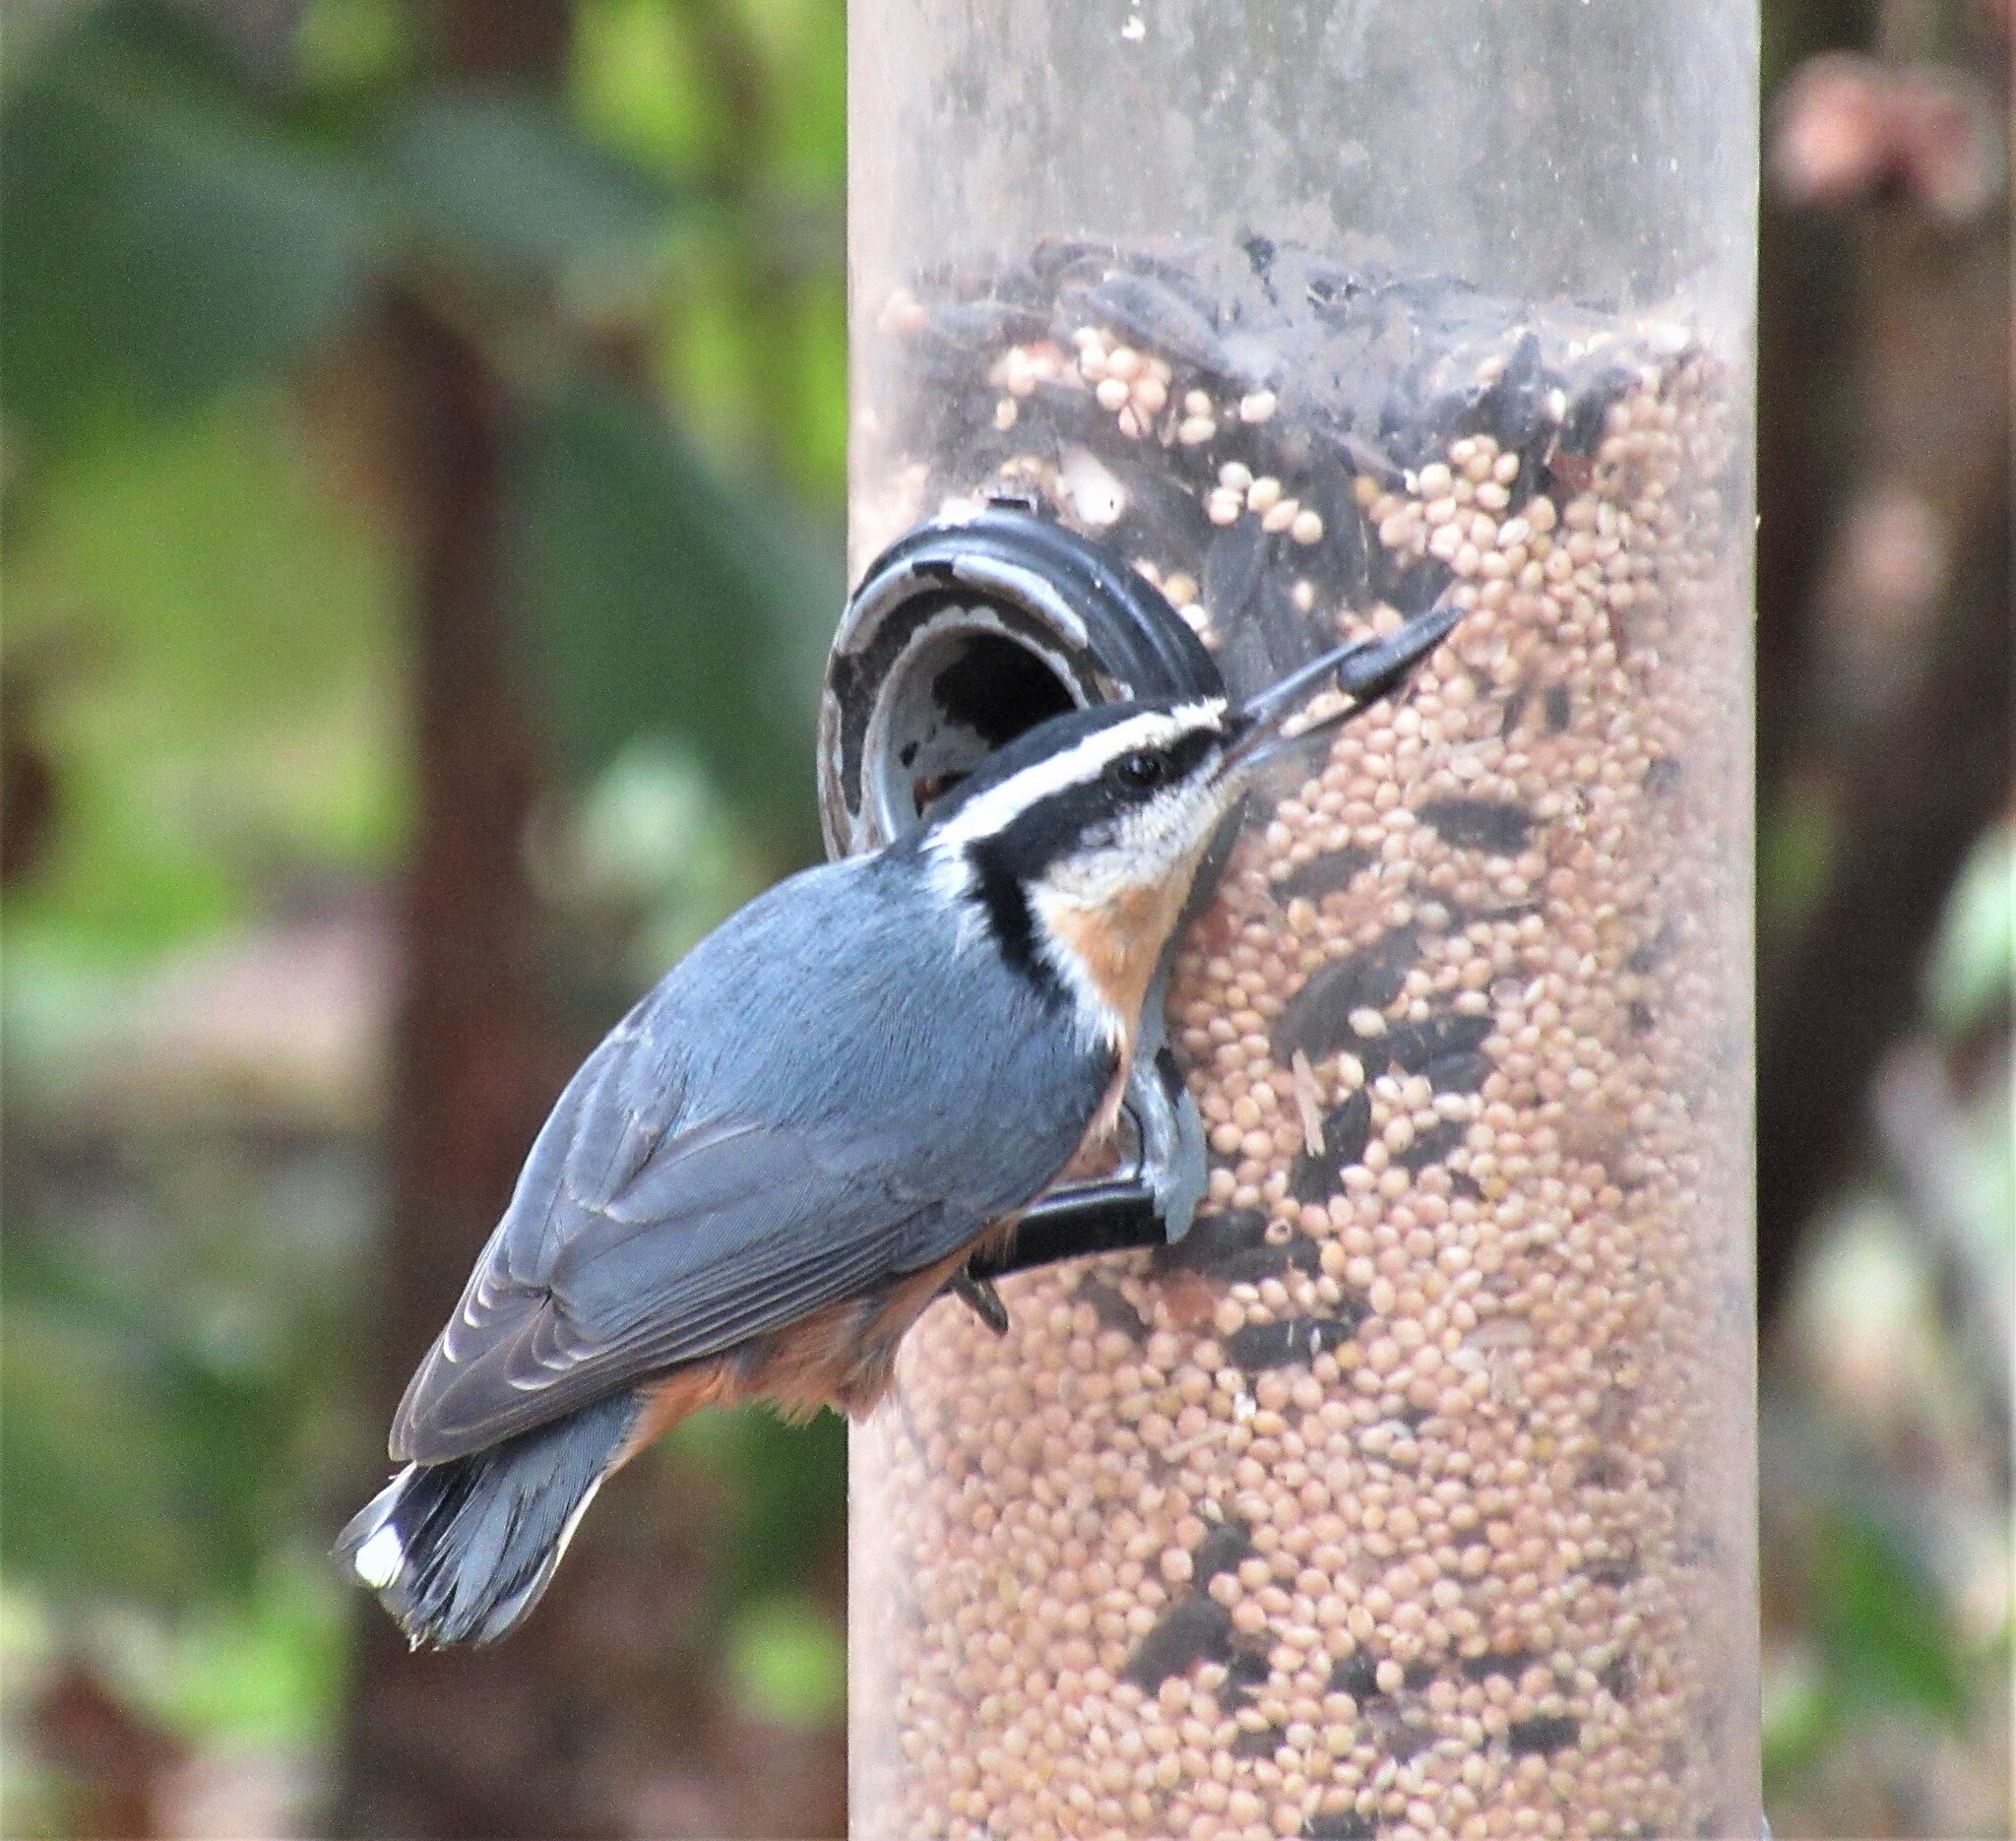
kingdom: Animalia
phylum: Chordata
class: Aves
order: Passeriformes
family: Sittidae
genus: Sitta
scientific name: Sitta canadensis
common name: Red-breasted nuthatch
